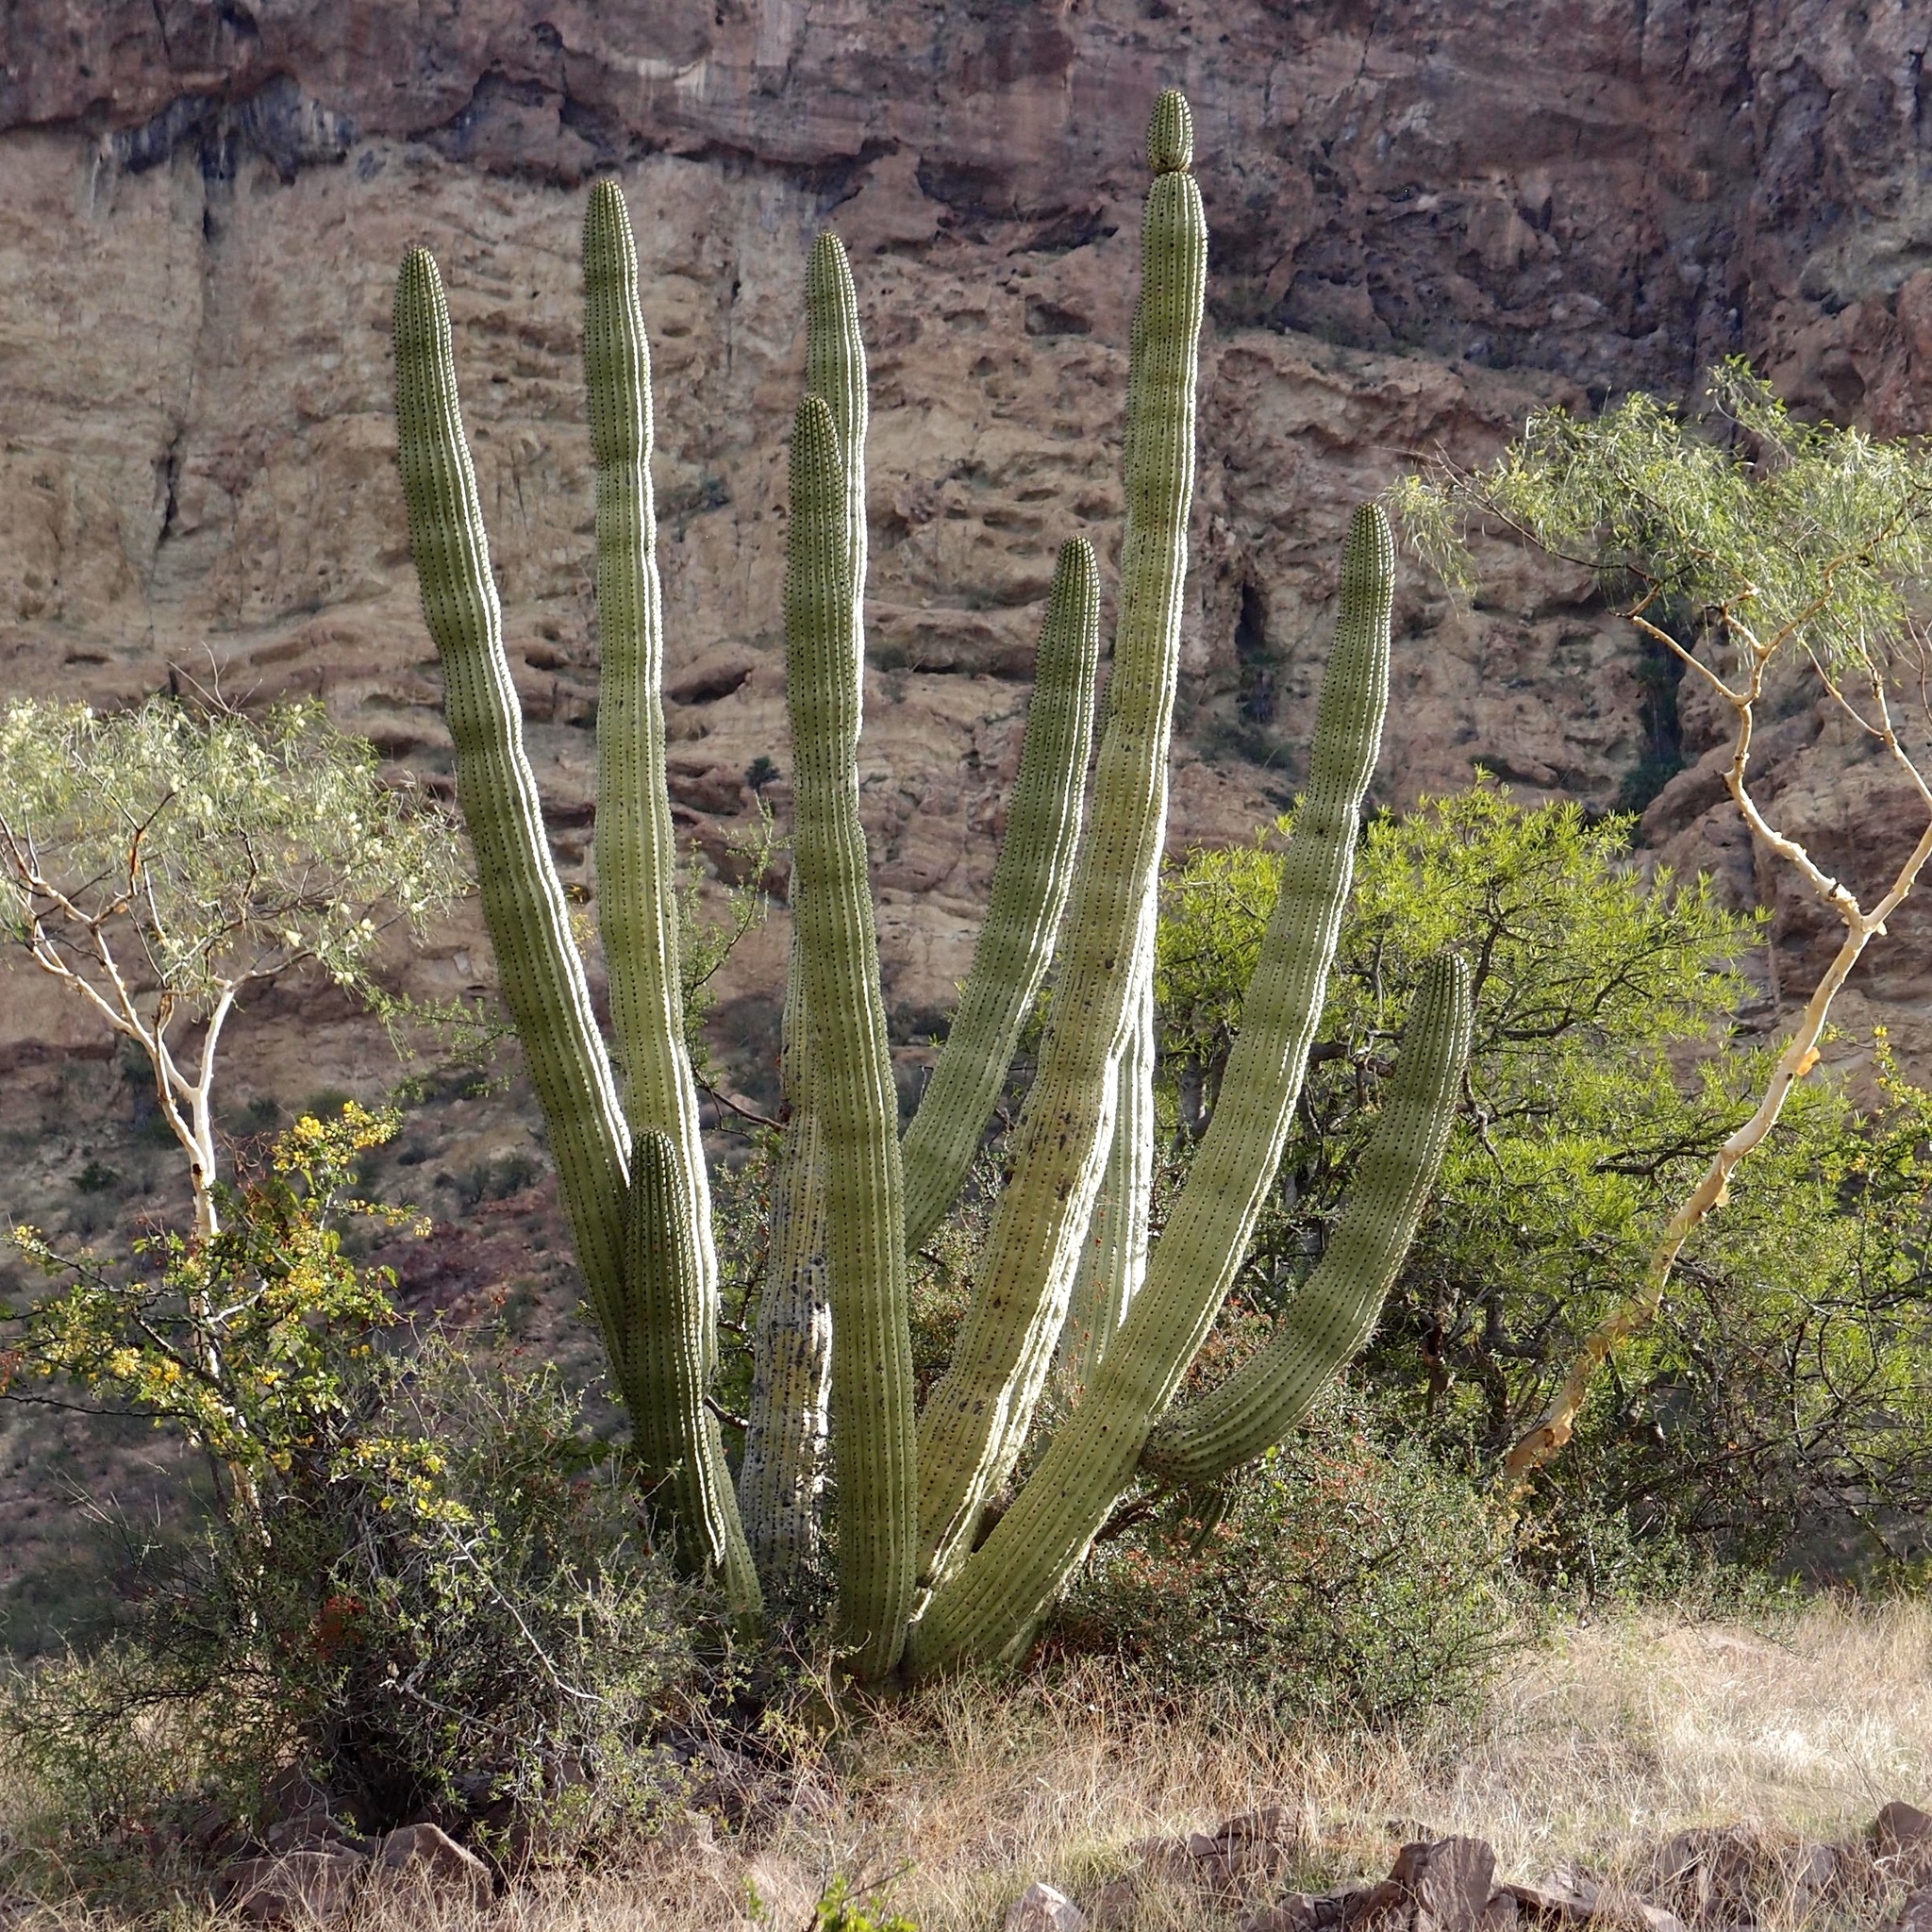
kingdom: Plantae
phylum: Tracheophyta
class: Magnoliopsida
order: Caryophyllales
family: Cactaceae
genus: Stenocereus
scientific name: Stenocereus thurberi
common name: Organ pipe cactus
